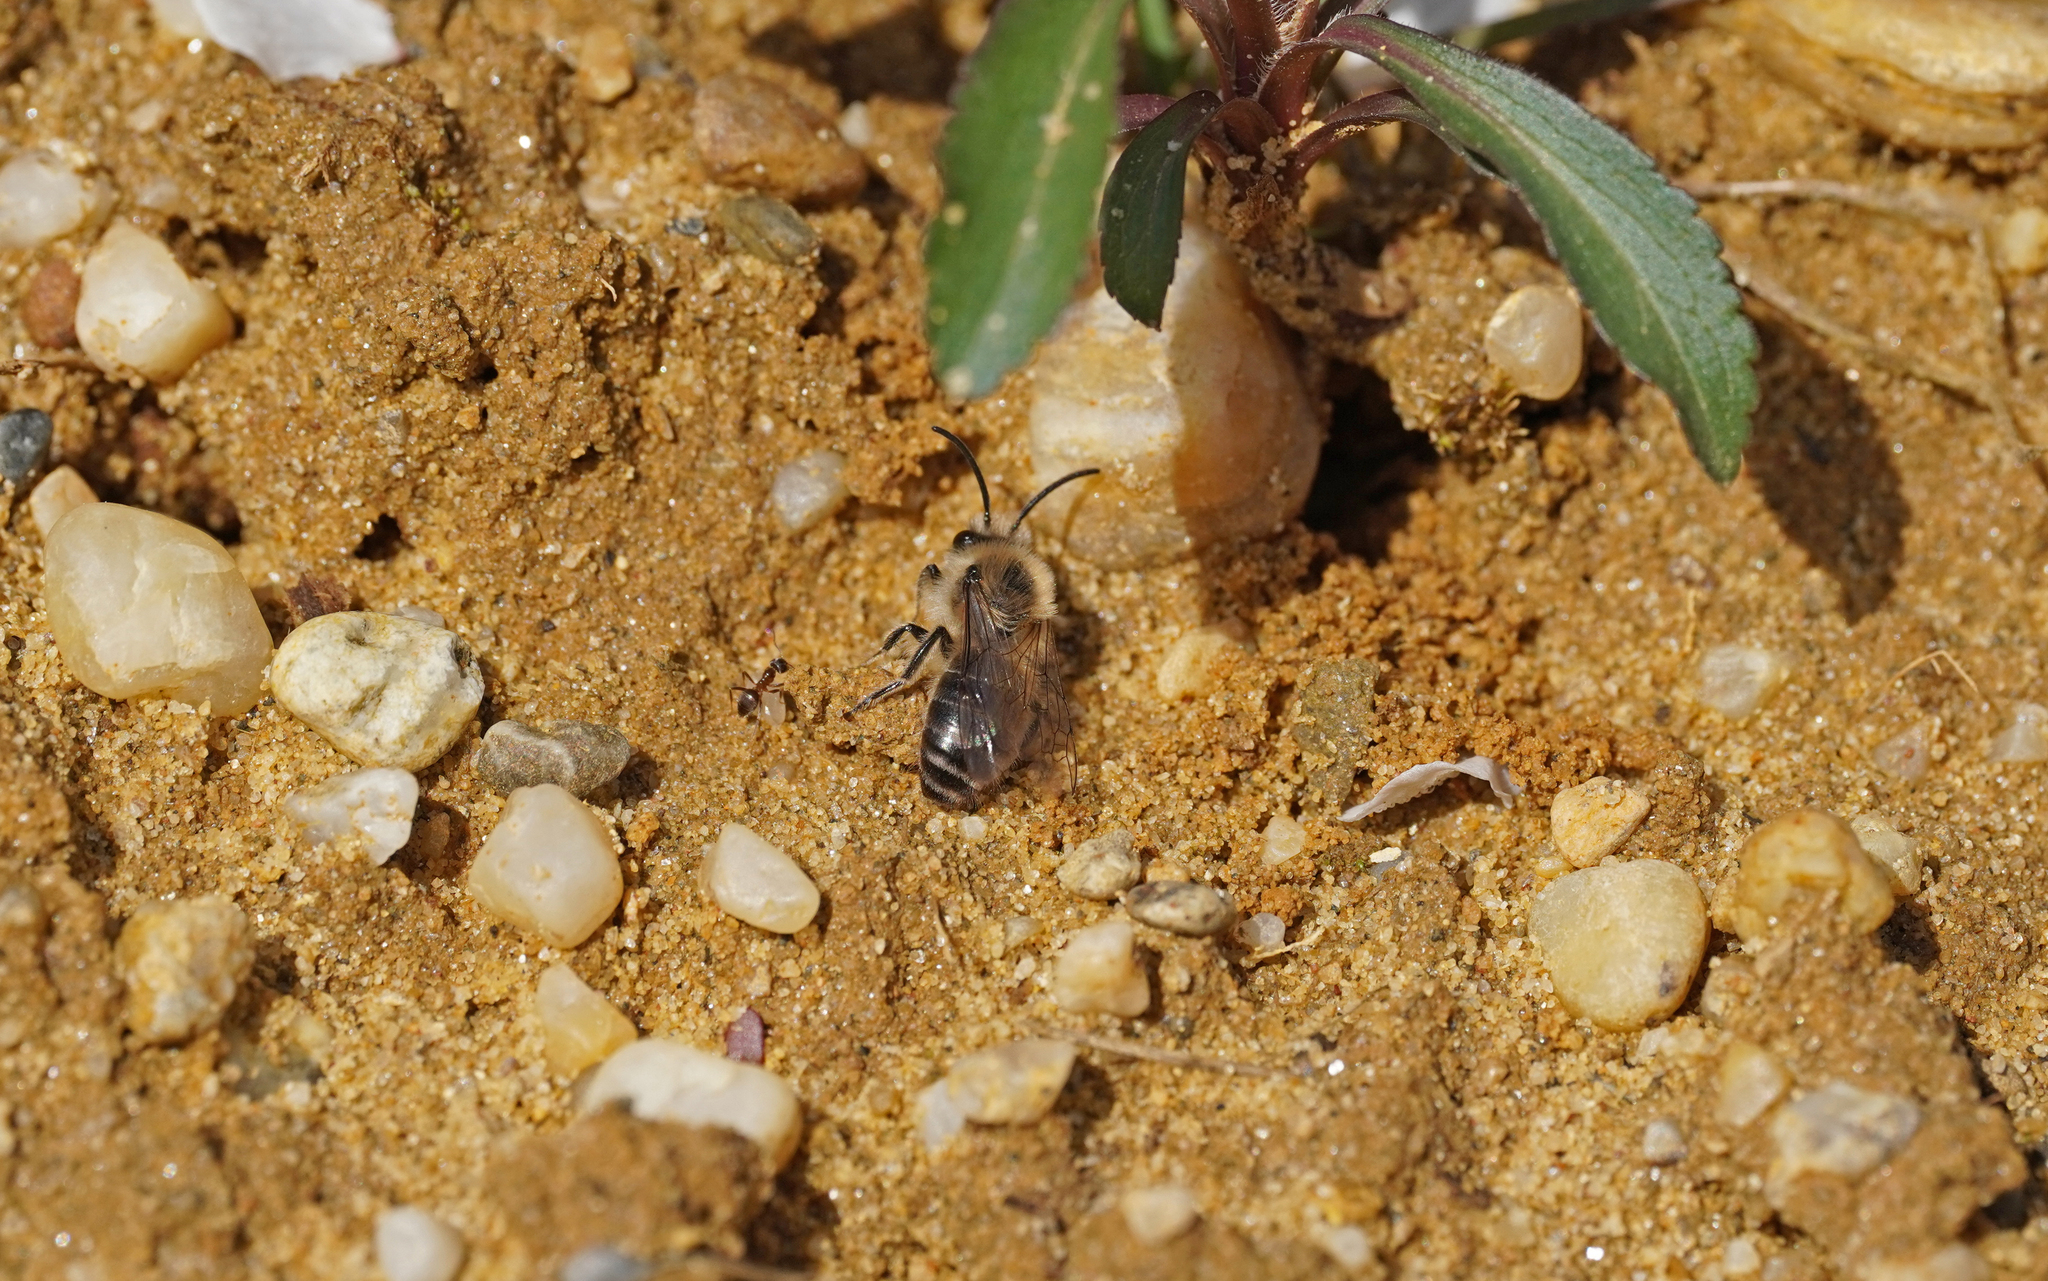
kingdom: Animalia
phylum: Arthropoda
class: Insecta
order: Hymenoptera
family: Colletidae
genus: Colletes
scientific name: Colletes cunicularius
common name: Early colletes
